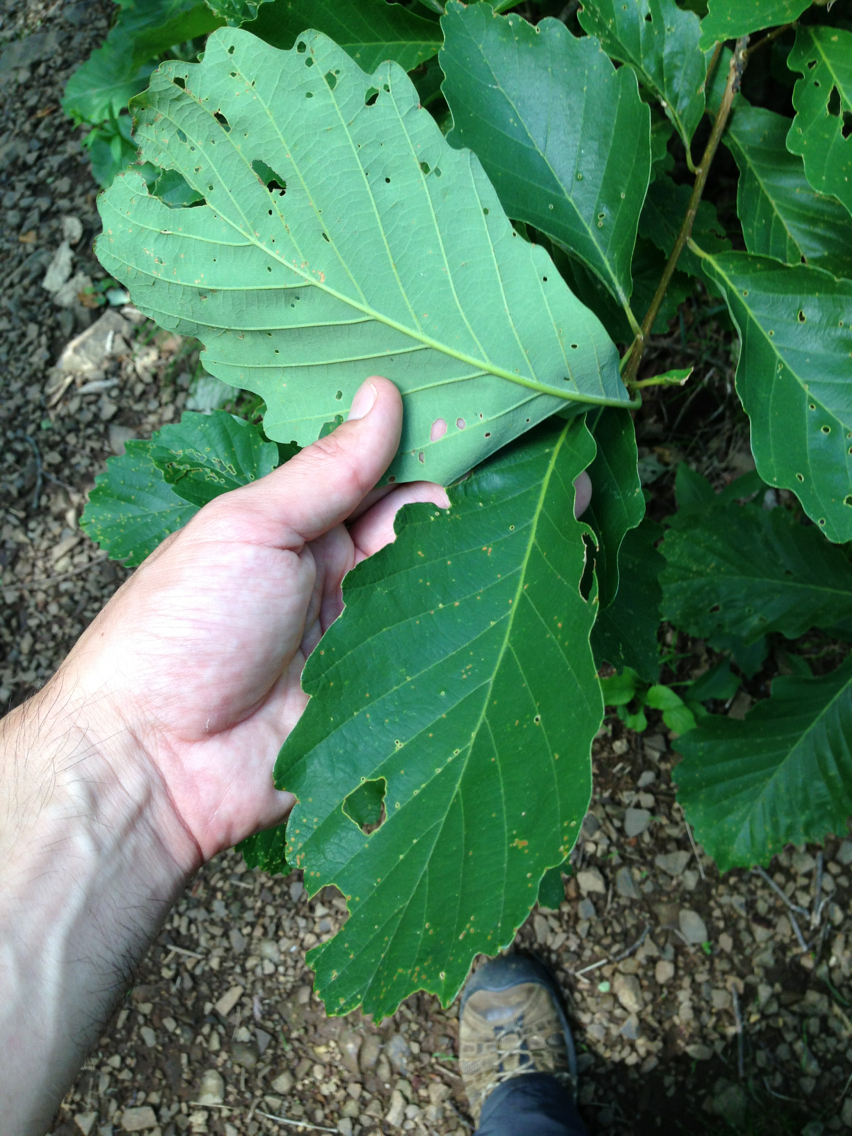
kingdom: Plantae
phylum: Tracheophyta
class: Magnoliopsida
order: Fagales
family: Fagaceae
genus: Quercus
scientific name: Quercus montana
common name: Chestnut oak
